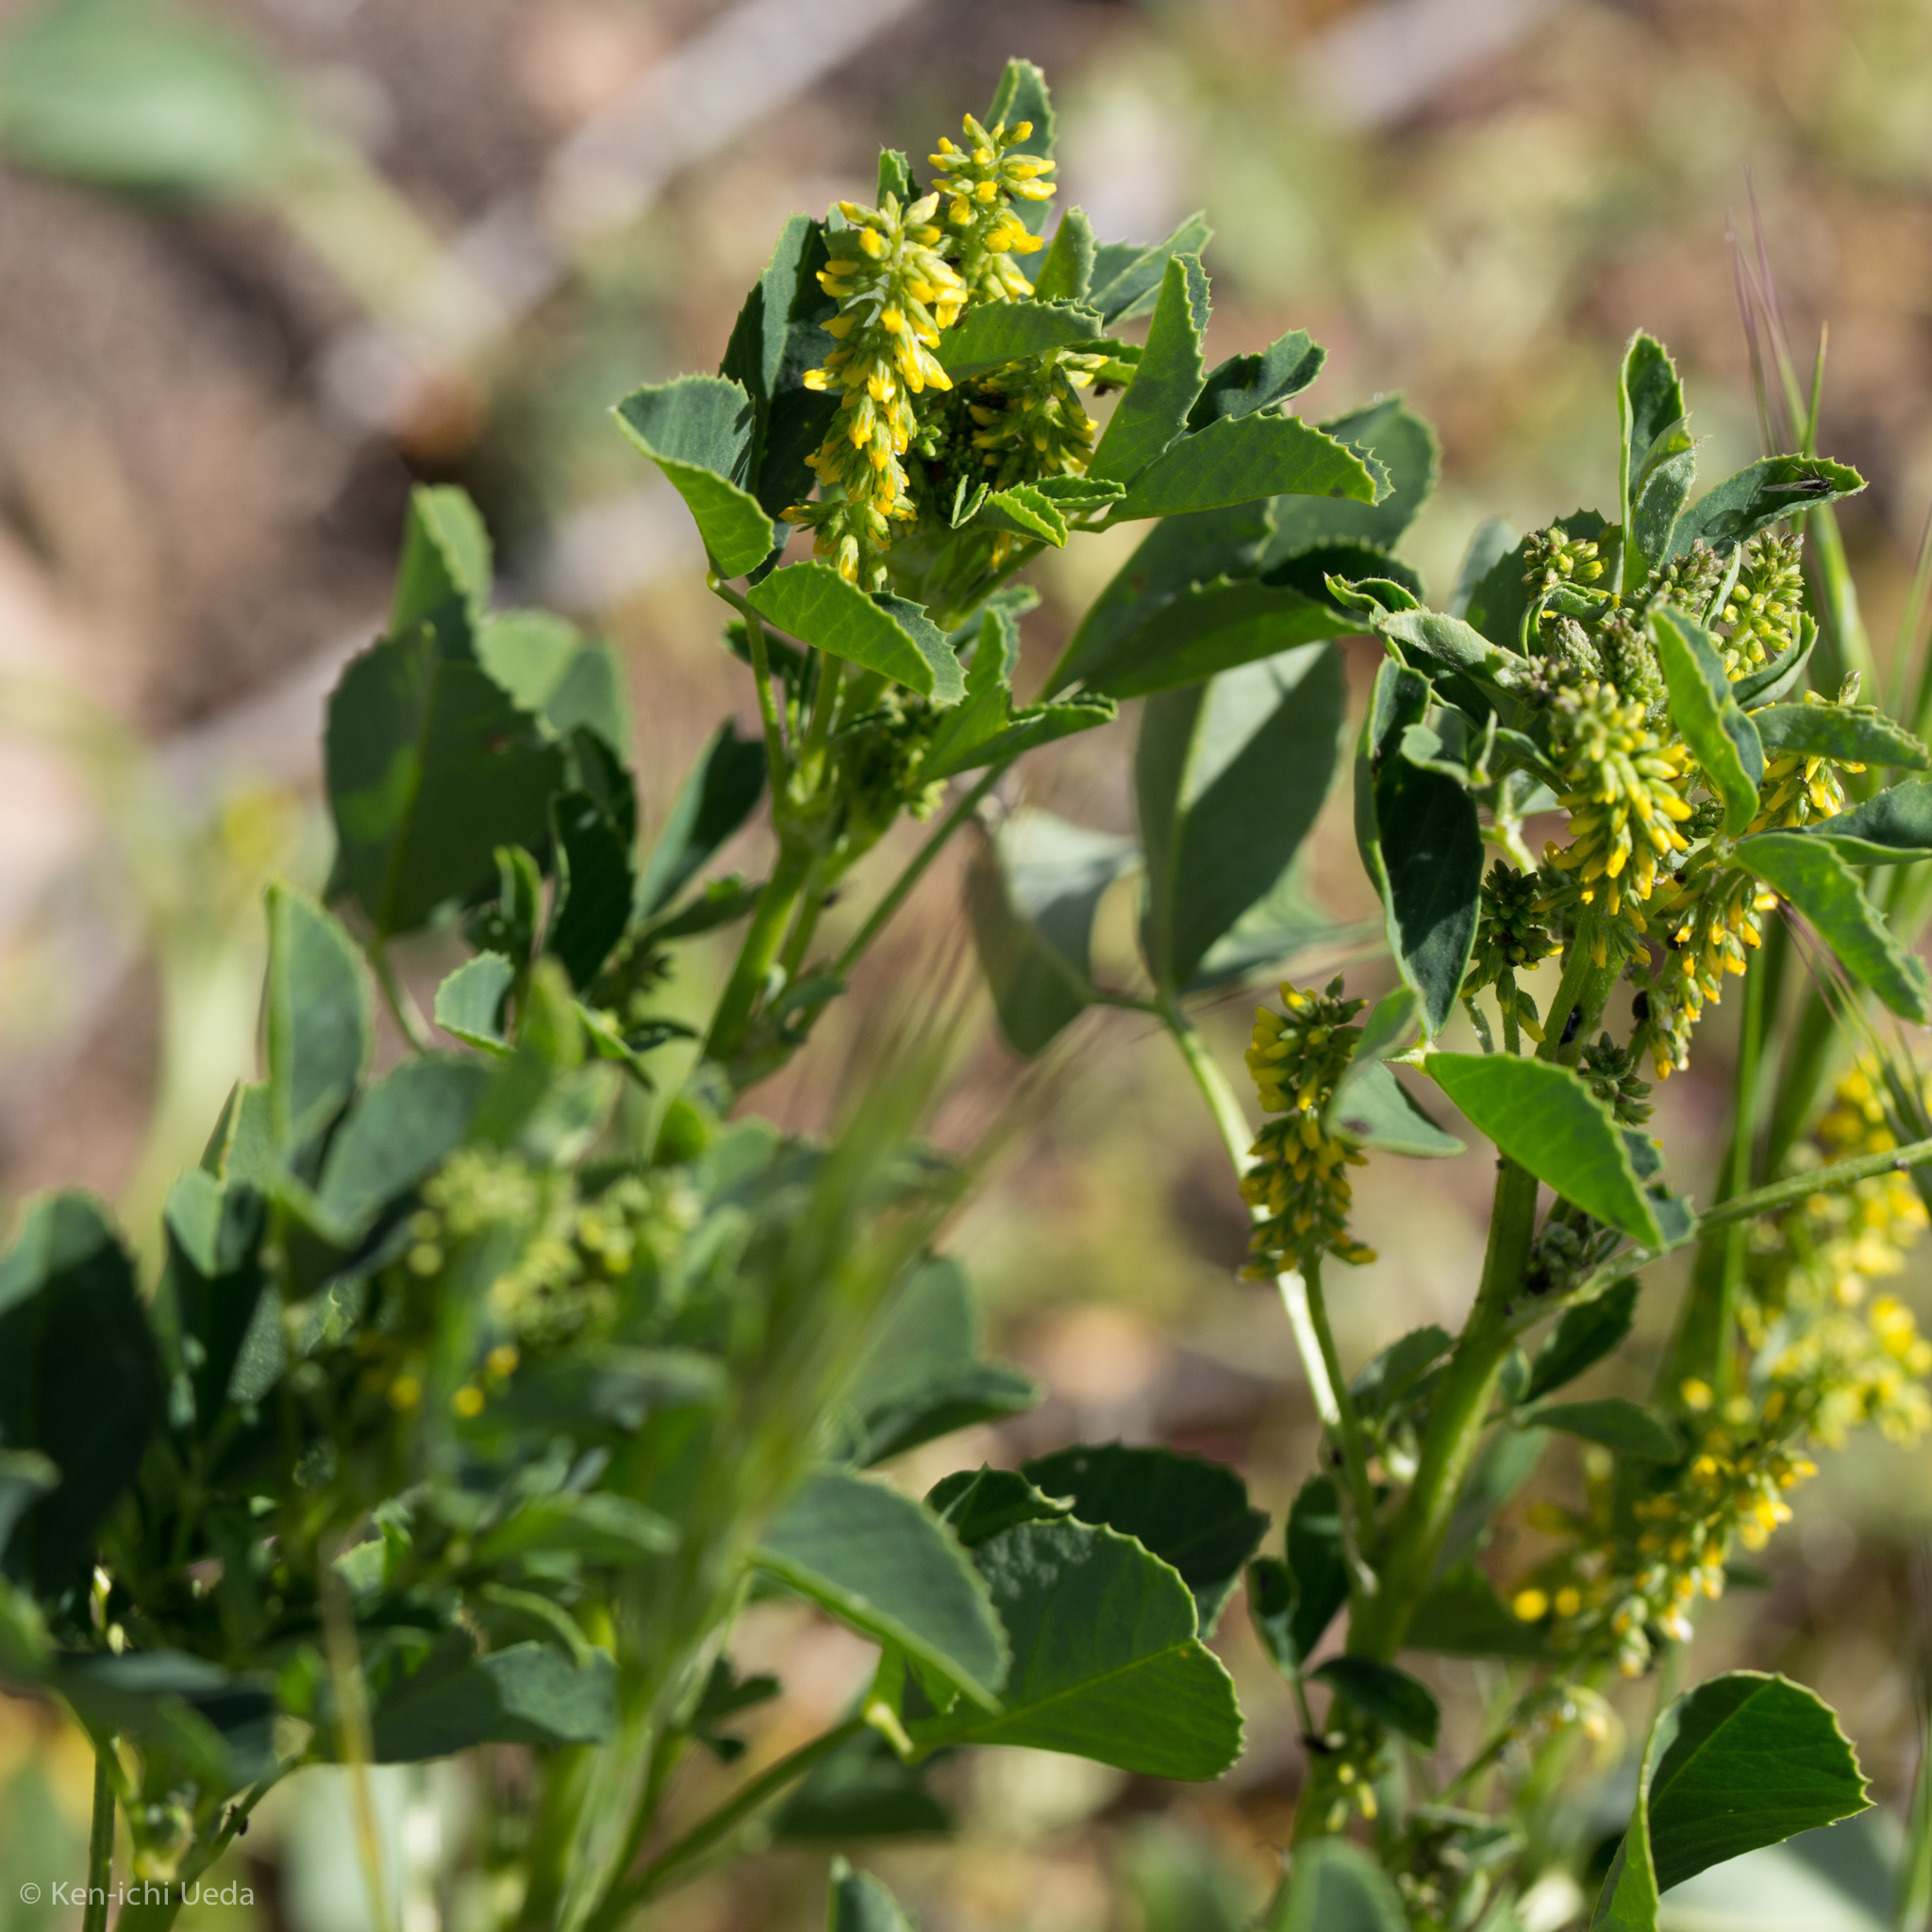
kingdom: Plantae
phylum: Tracheophyta
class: Magnoliopsida
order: Fabales
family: Fabaceae
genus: Melilotus
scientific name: Melilotus indicus
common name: Small melilot
